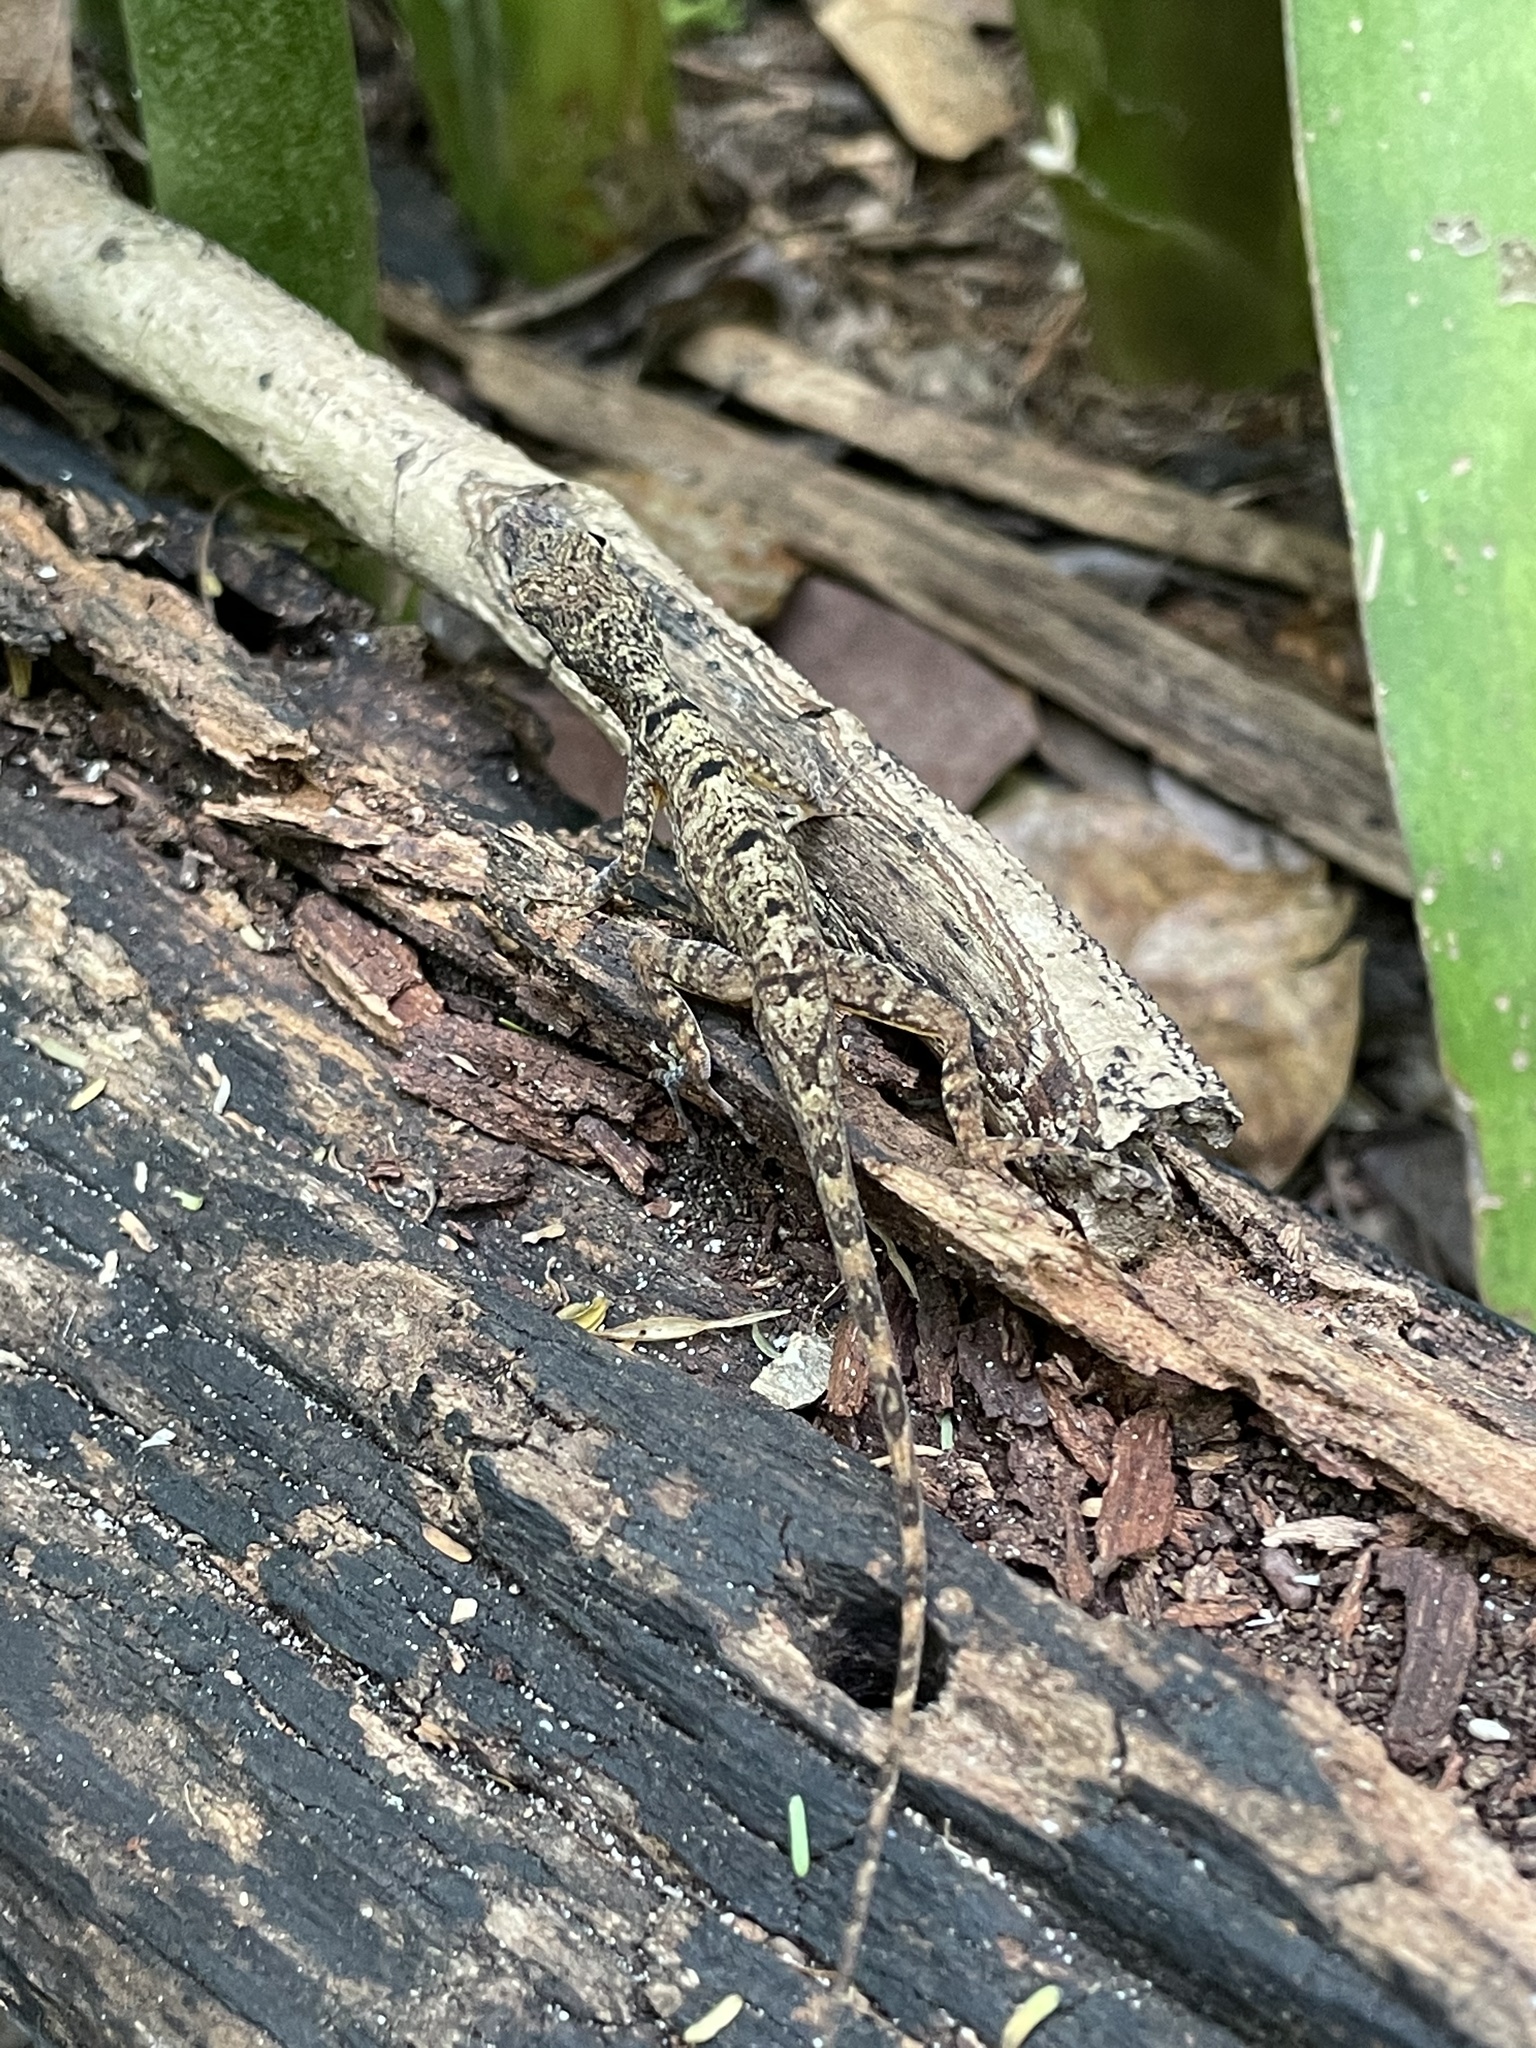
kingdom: Animalia
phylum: Chordata
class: Squamata
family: Dactyloidae
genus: Anolis
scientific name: Anolis stratulus
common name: Banded anole
